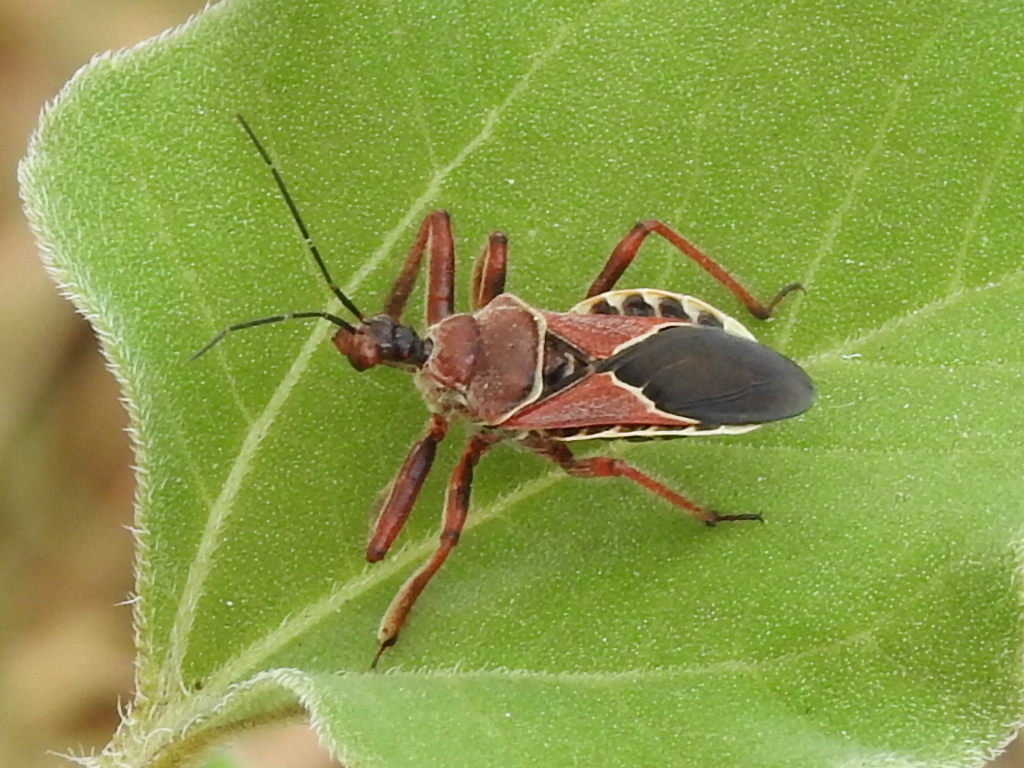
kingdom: Animalia
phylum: Arthropoda
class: Insecta
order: Hemiptera
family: Reduviidae
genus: Apiomerus
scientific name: Apiomerus spissipes
